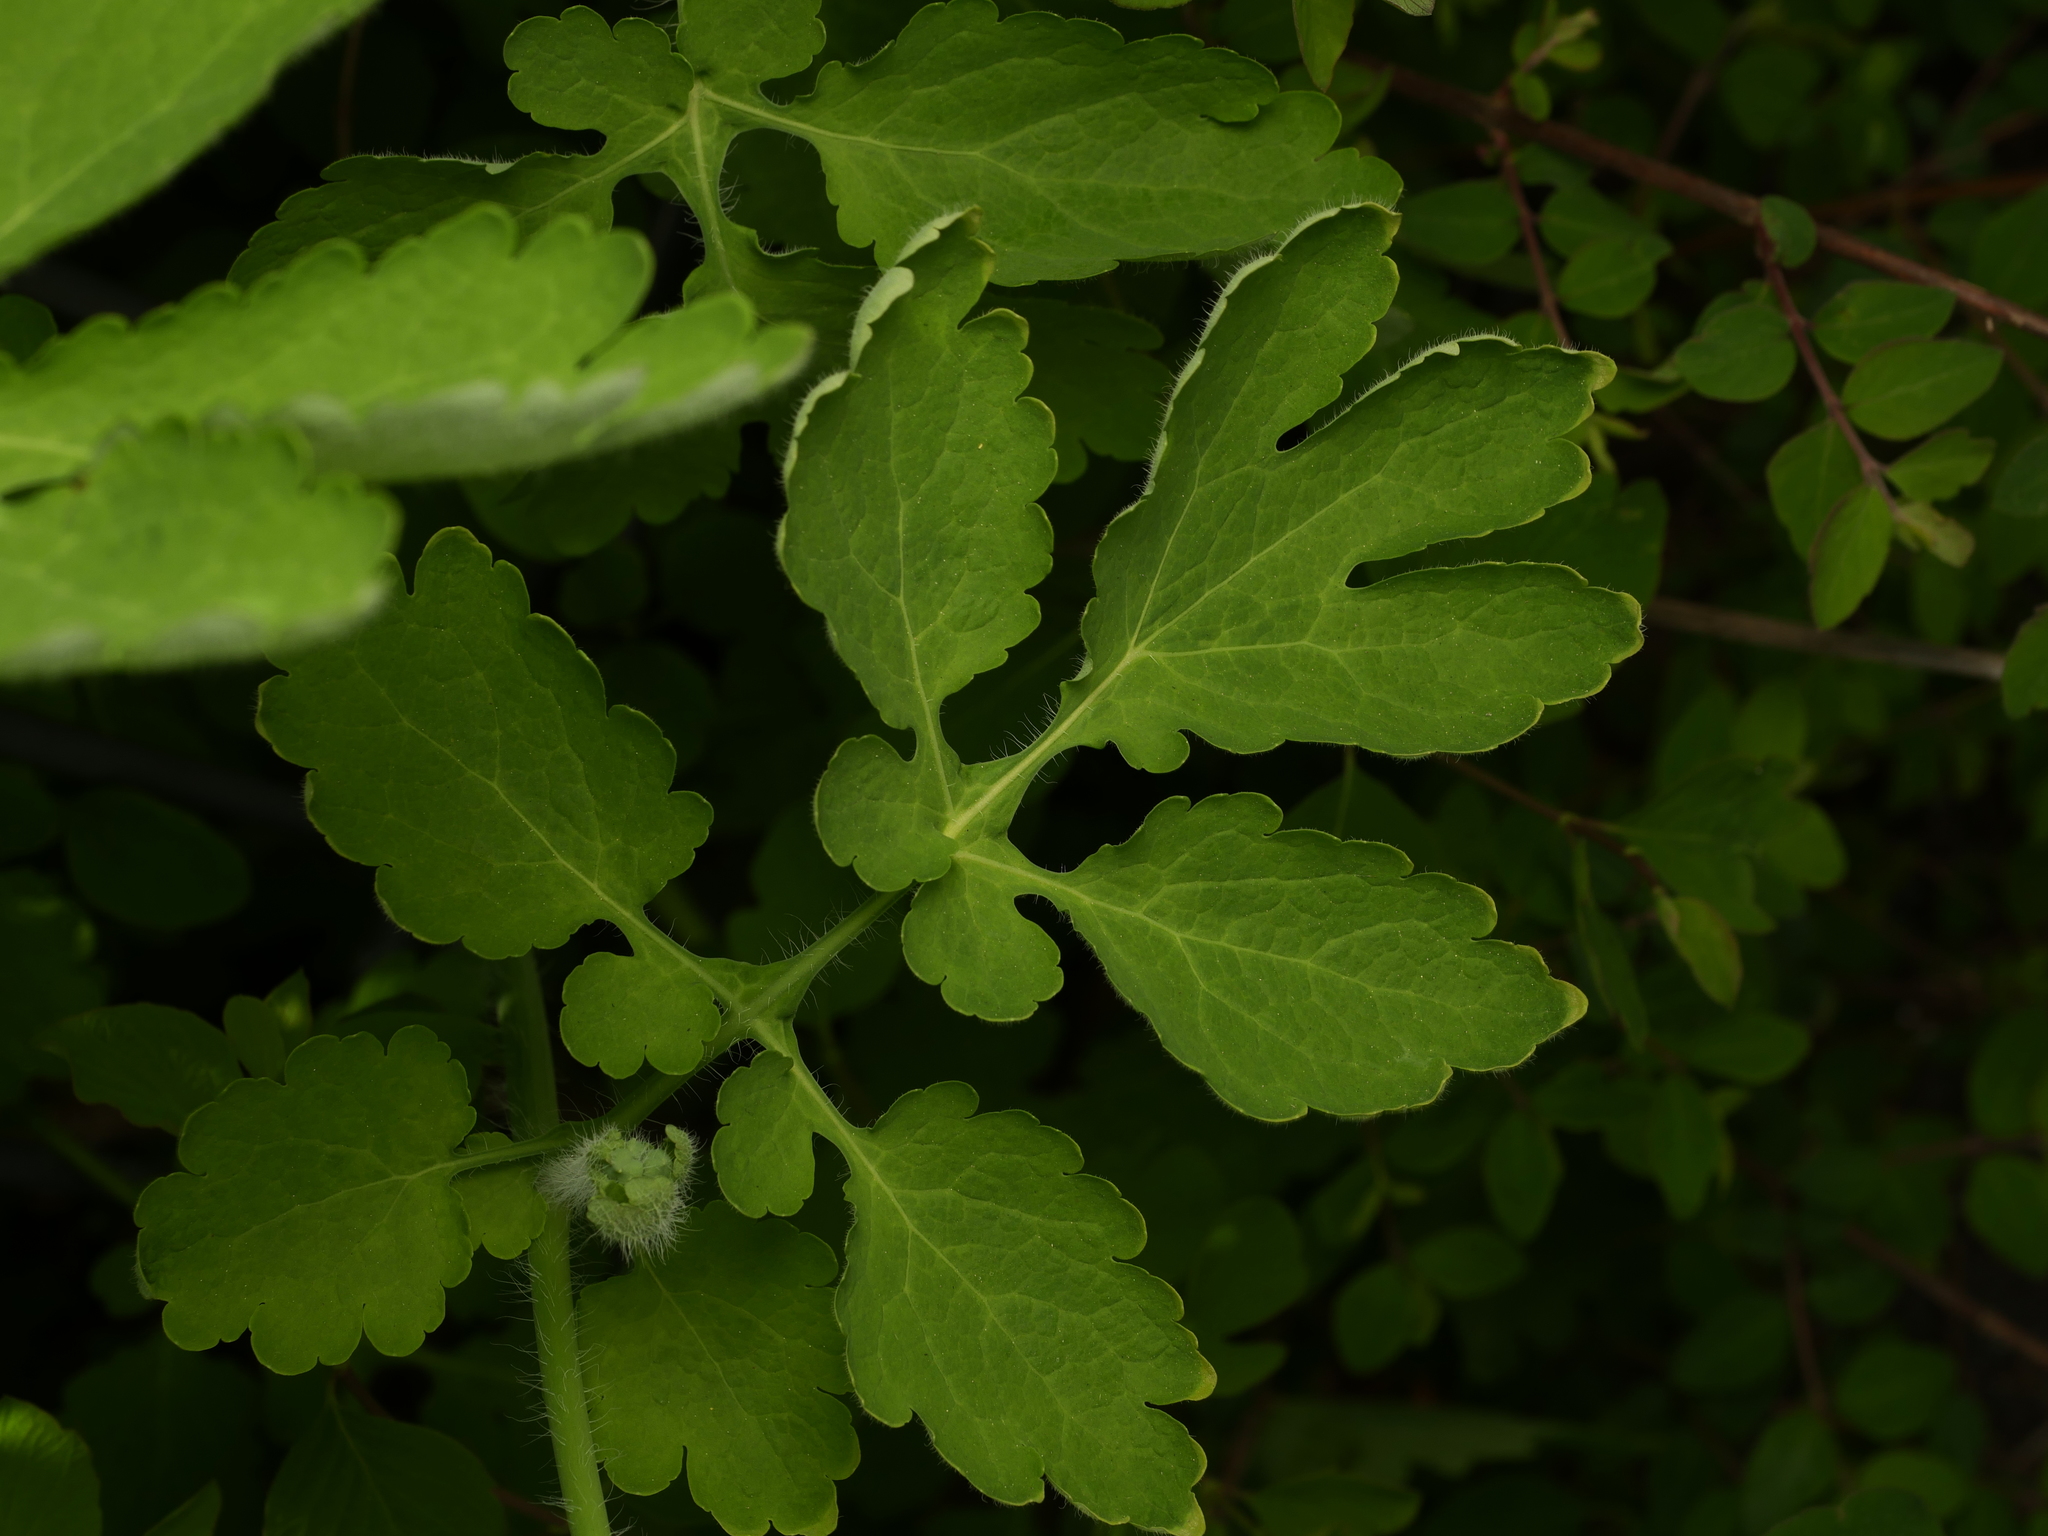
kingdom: Plantae
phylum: Tracheophyta
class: Magnoliopsida
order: Ranunculales
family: Papaveraceae
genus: Chelidonium
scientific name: Chelidonium majus
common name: Greater celandine
